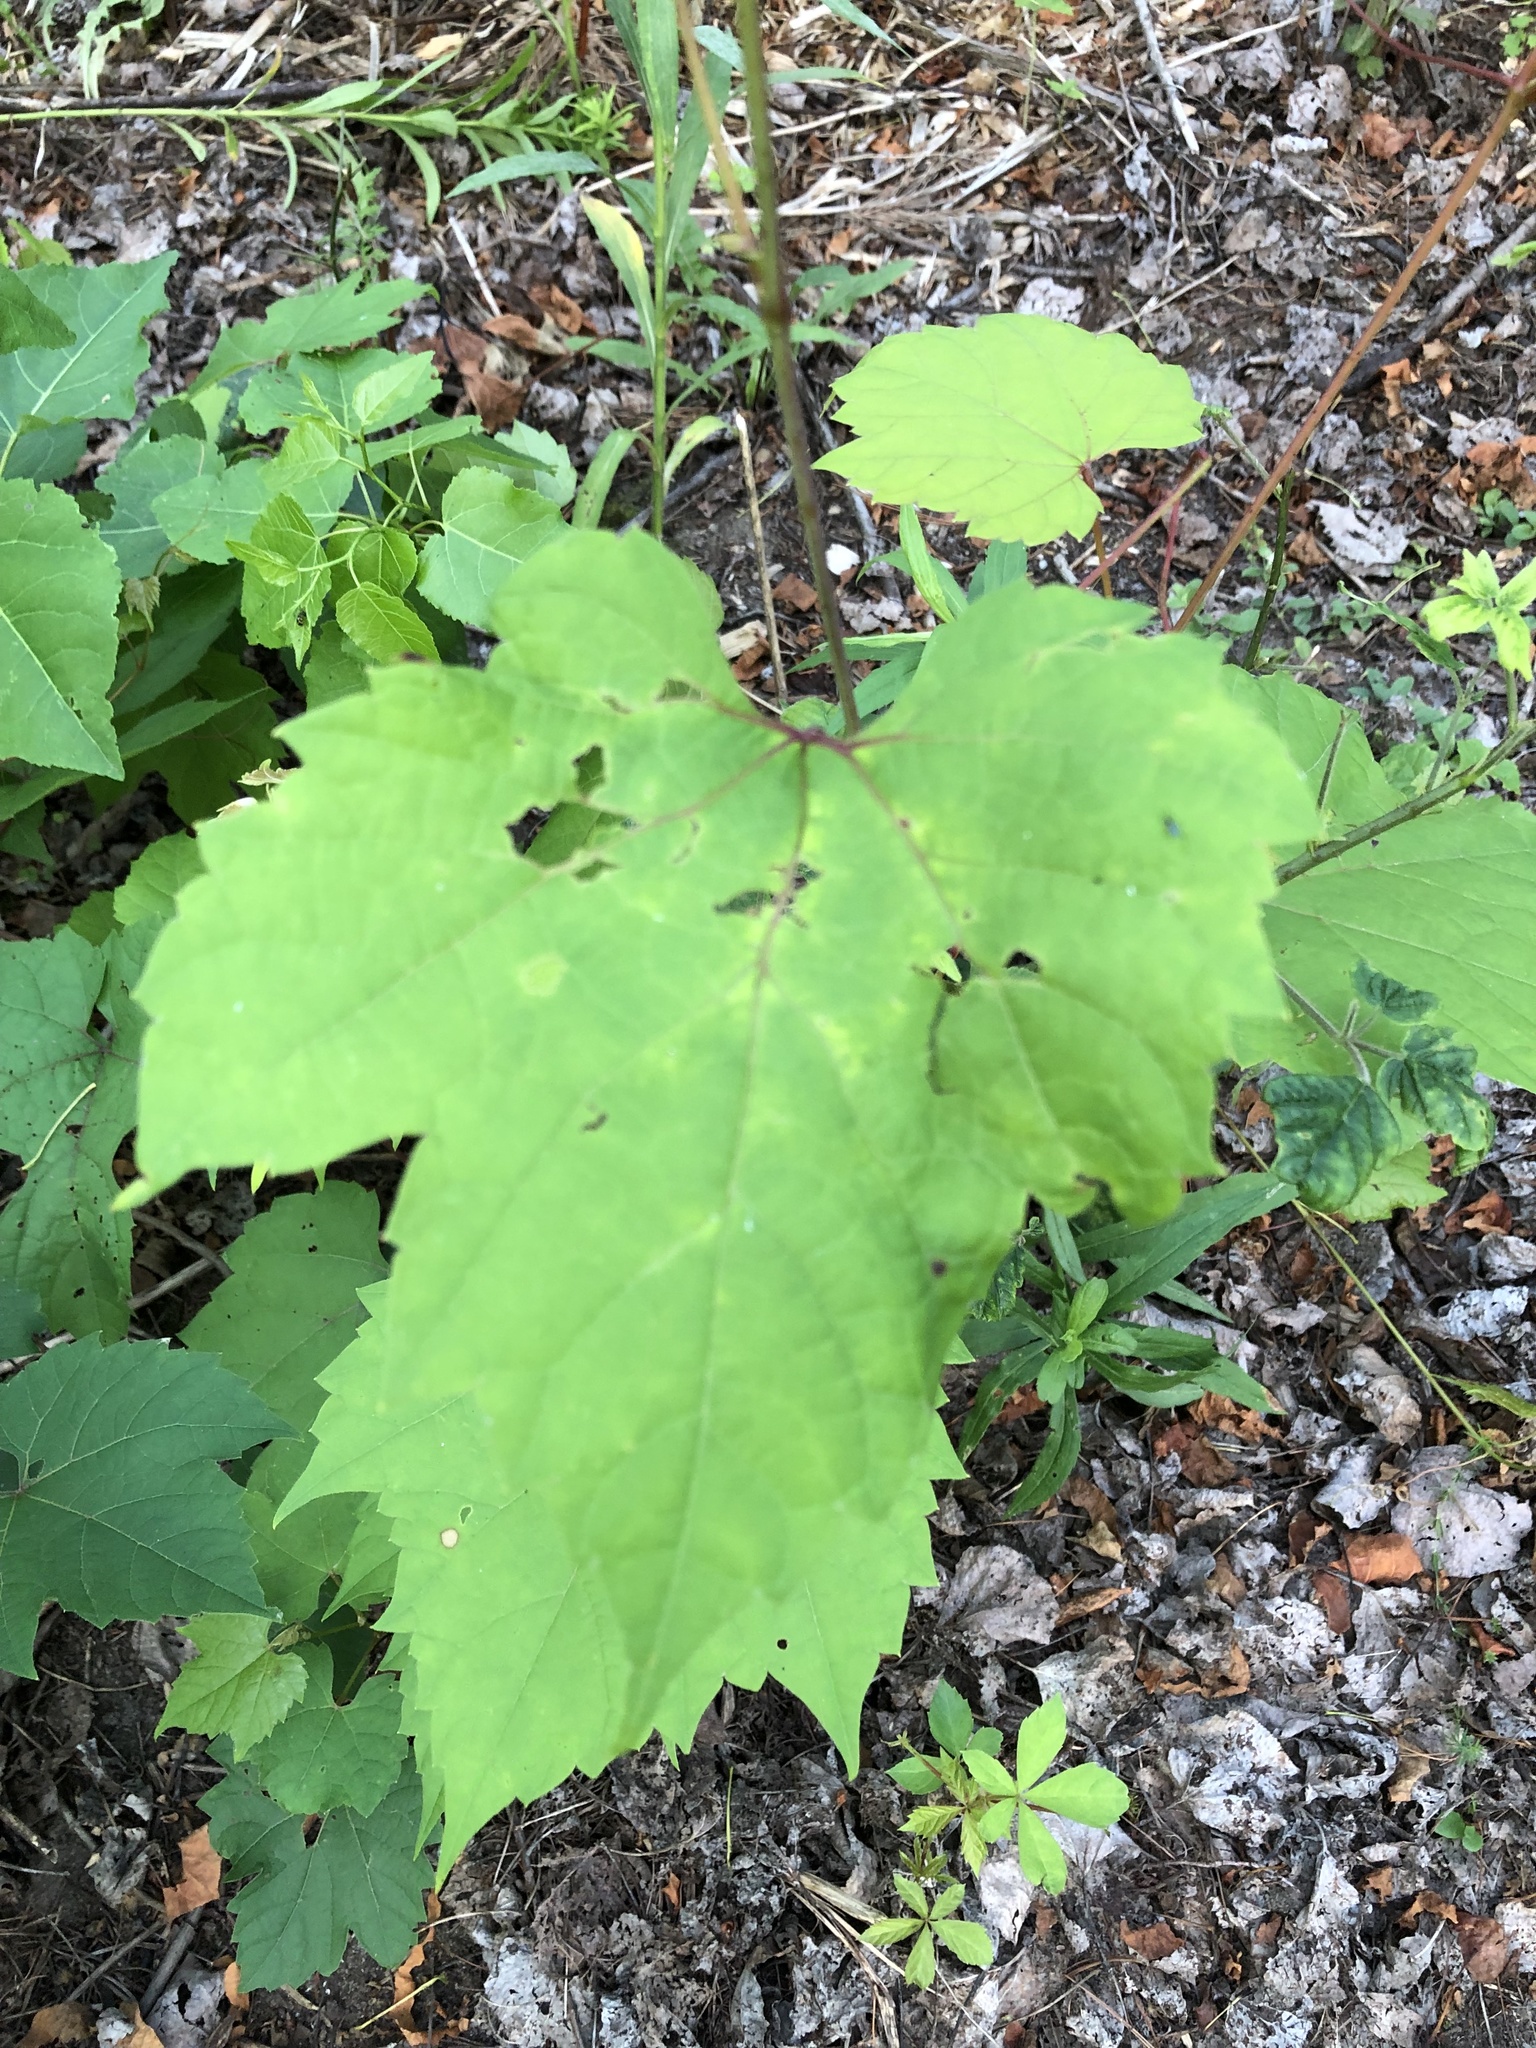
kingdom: Plantae
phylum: Tracheophyta
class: Magnoliopsida
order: Vitales
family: Vitaceae
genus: Vitis
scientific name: Vitis riparia
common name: Frost grape
